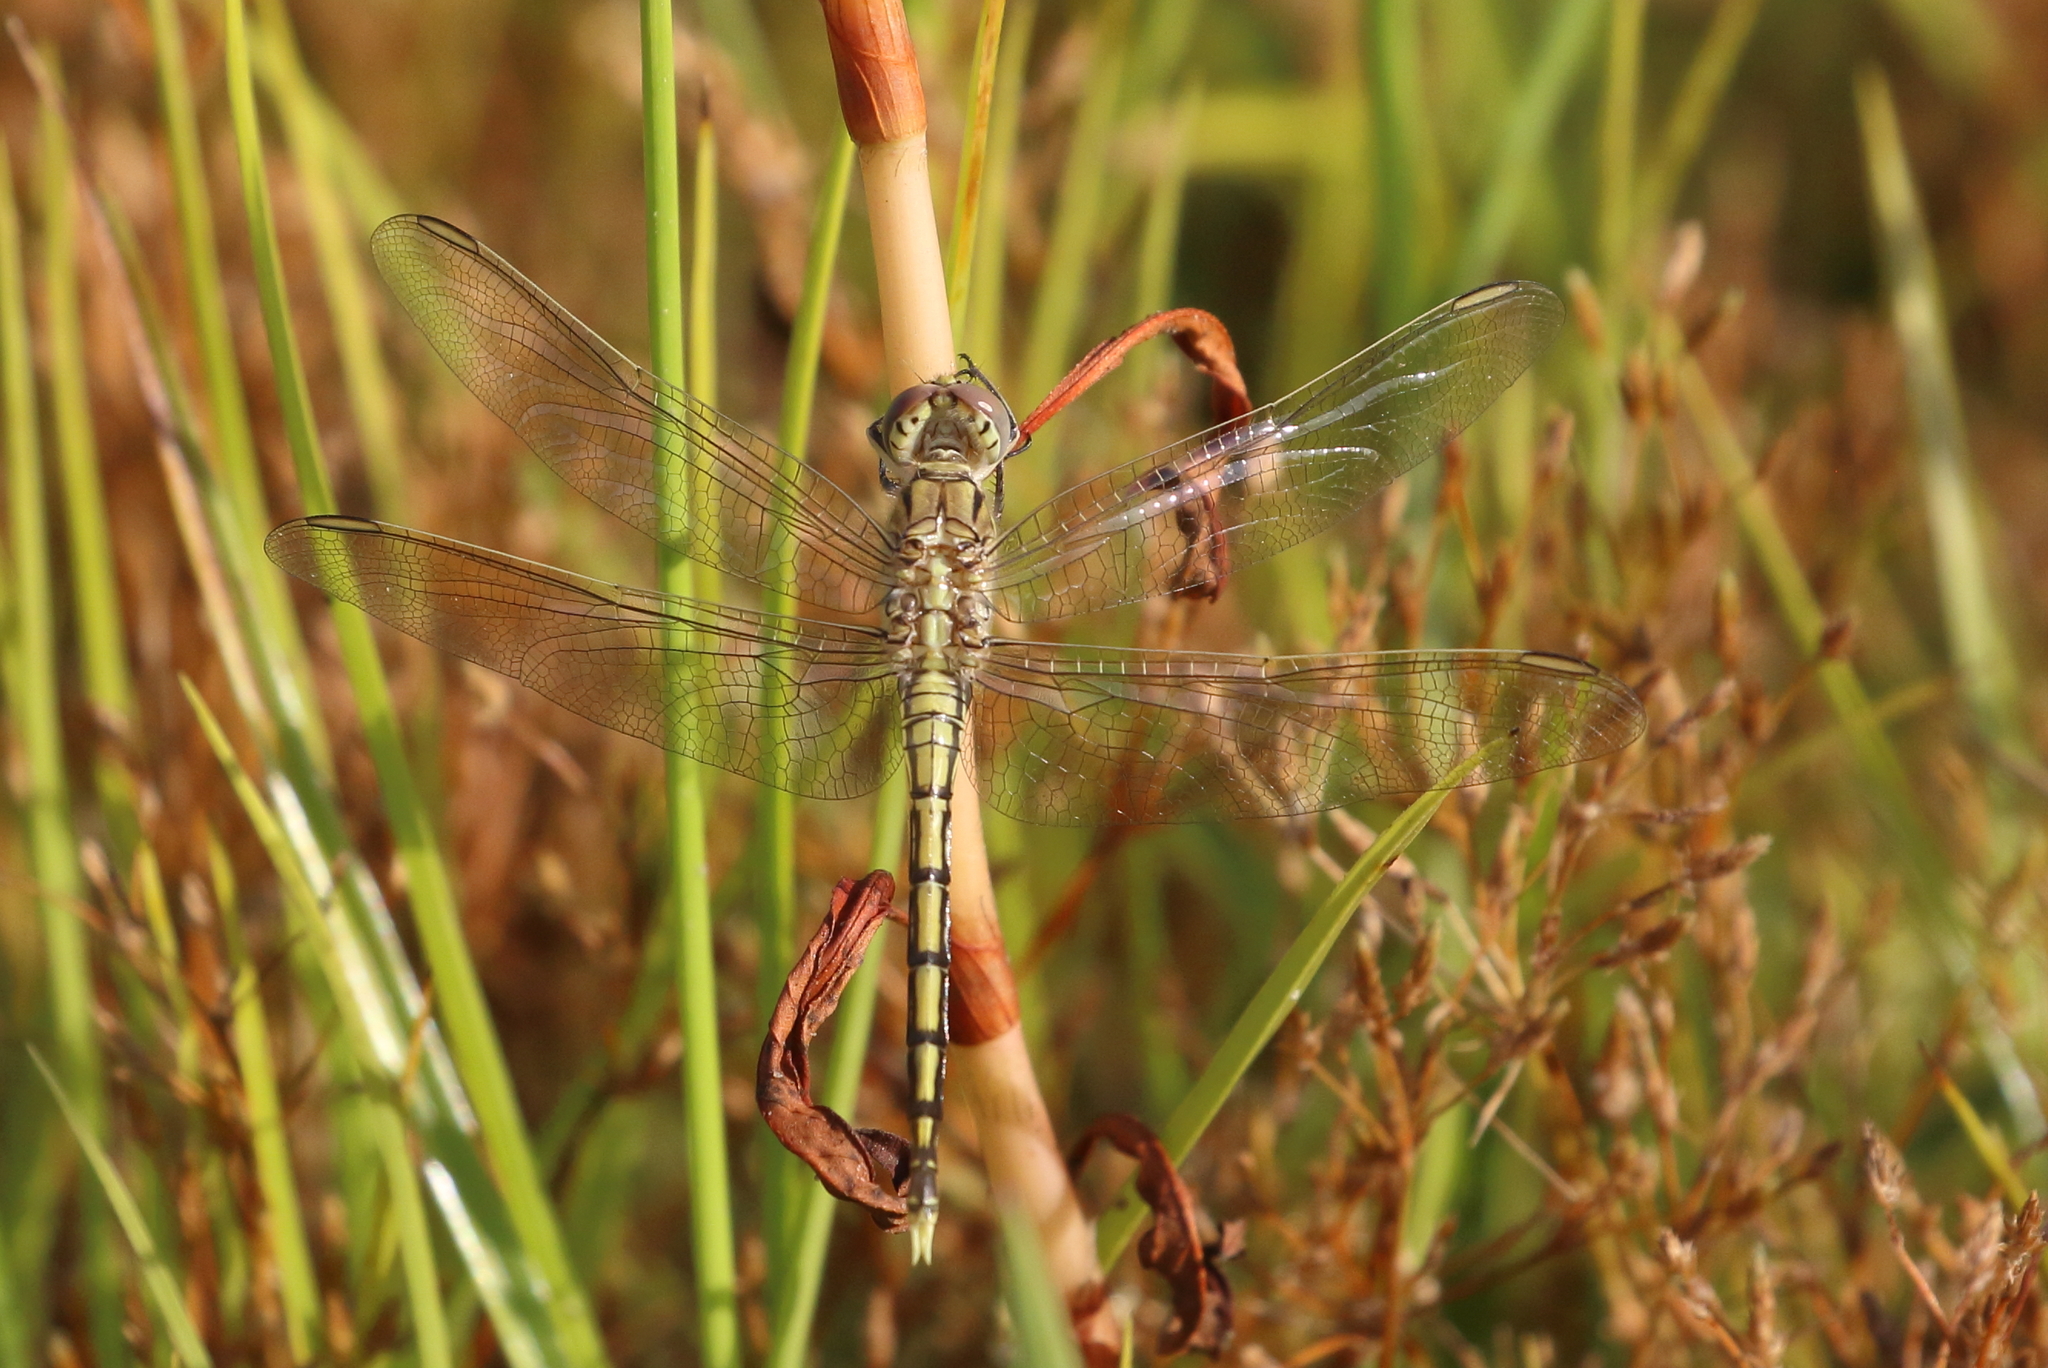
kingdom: Animalia
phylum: Arthropoda
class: Insecta
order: Odonata
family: Libellulidae
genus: Orthetrum
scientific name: Orthetrum caledonicum
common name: Blue skimmer
